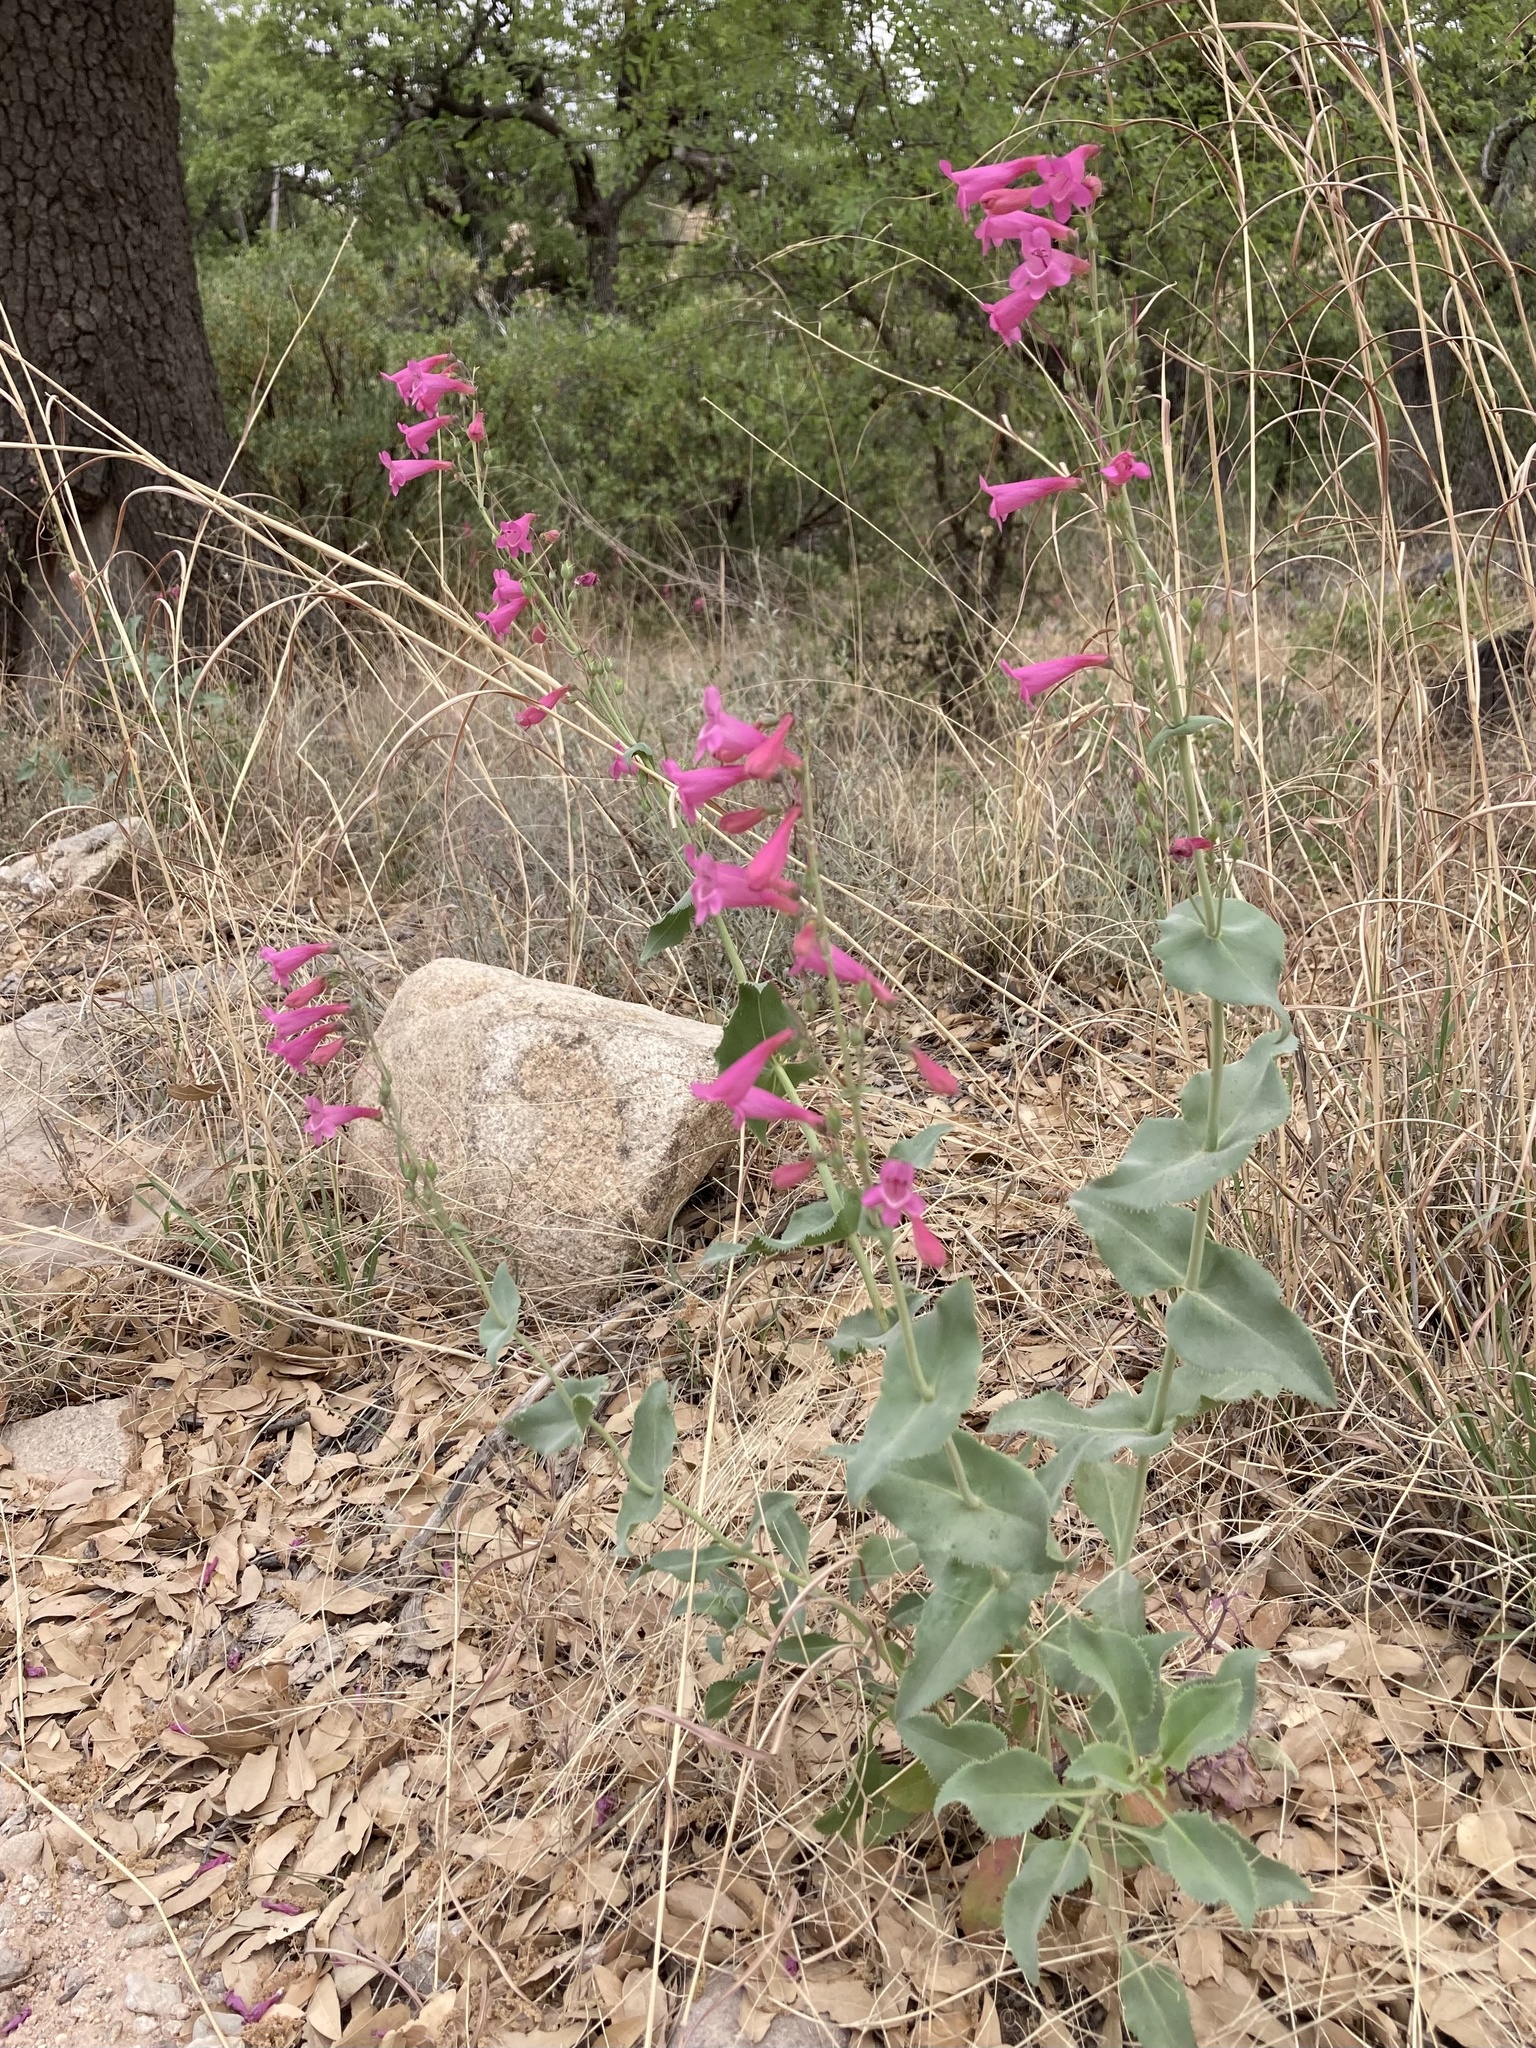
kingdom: Plantae
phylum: Tracheophyta
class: Magnoliopsida
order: Lamiales
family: Plantaginaceae
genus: Penstemon
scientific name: Penstemon pseudospectabilis
